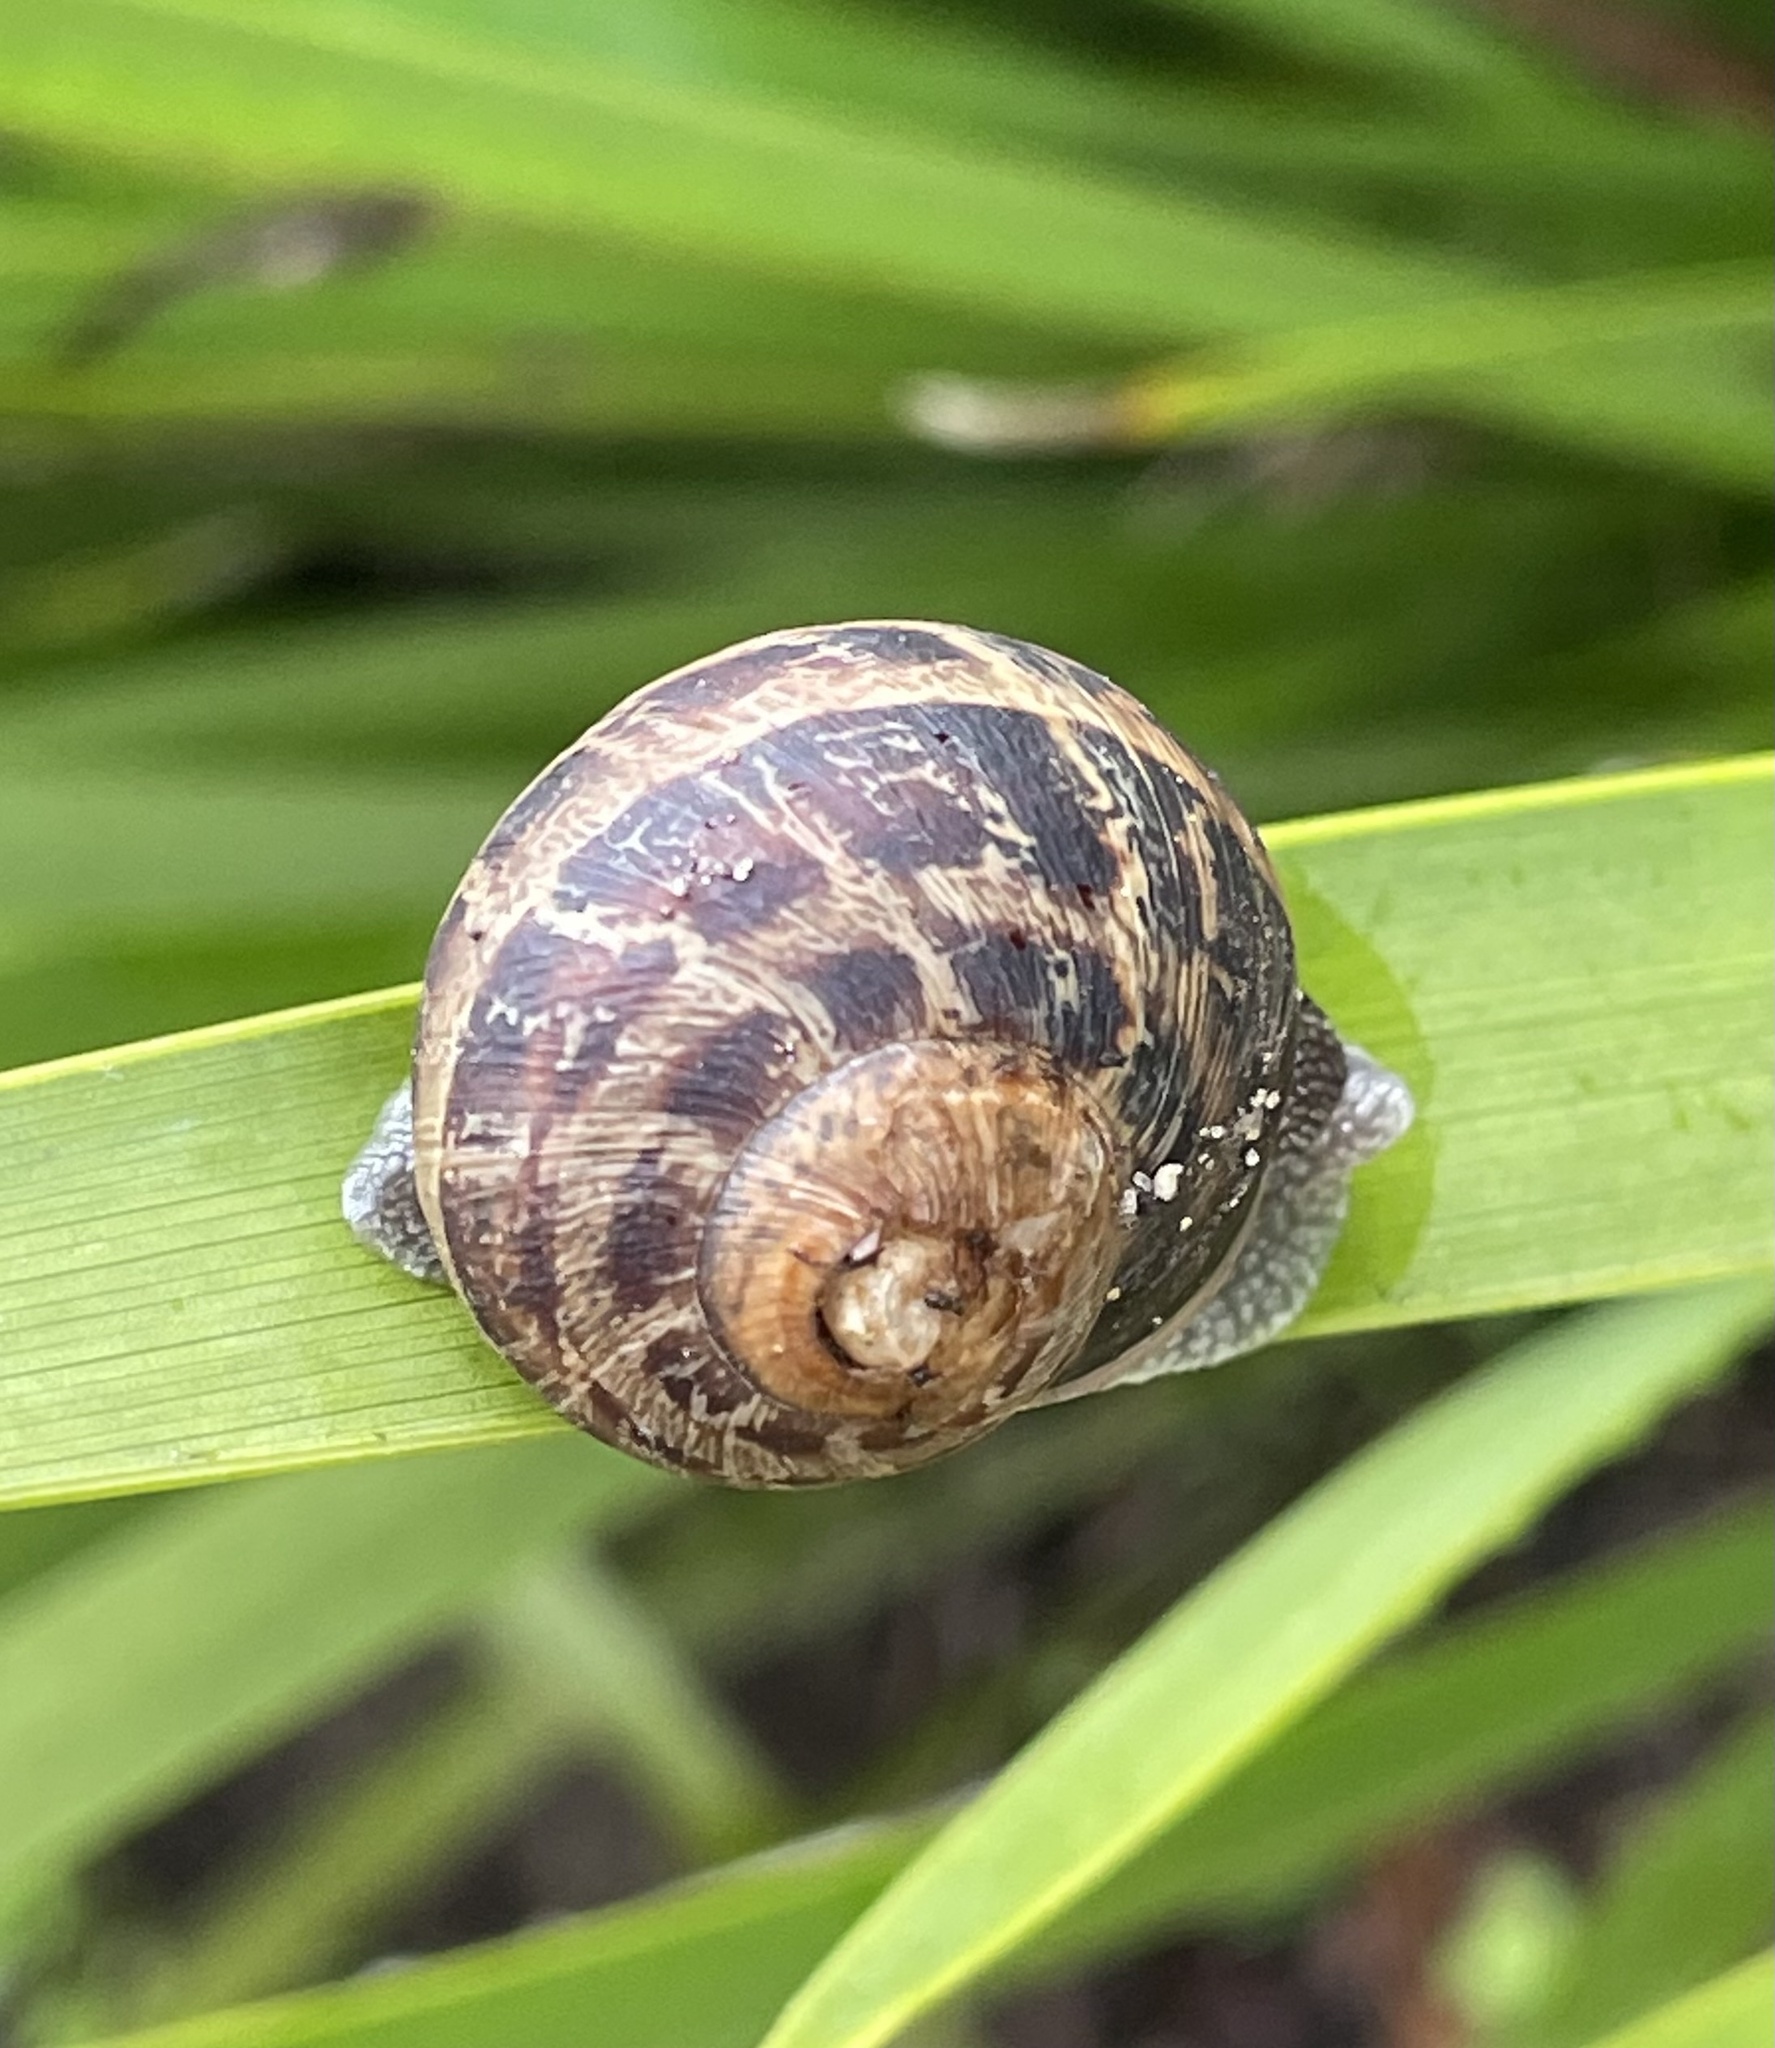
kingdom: Animalia
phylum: Mollusca
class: Gastropoda
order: Stylommatophora
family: Helicidae
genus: Cornu
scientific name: Cornu aspersum
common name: Brown garden snail
